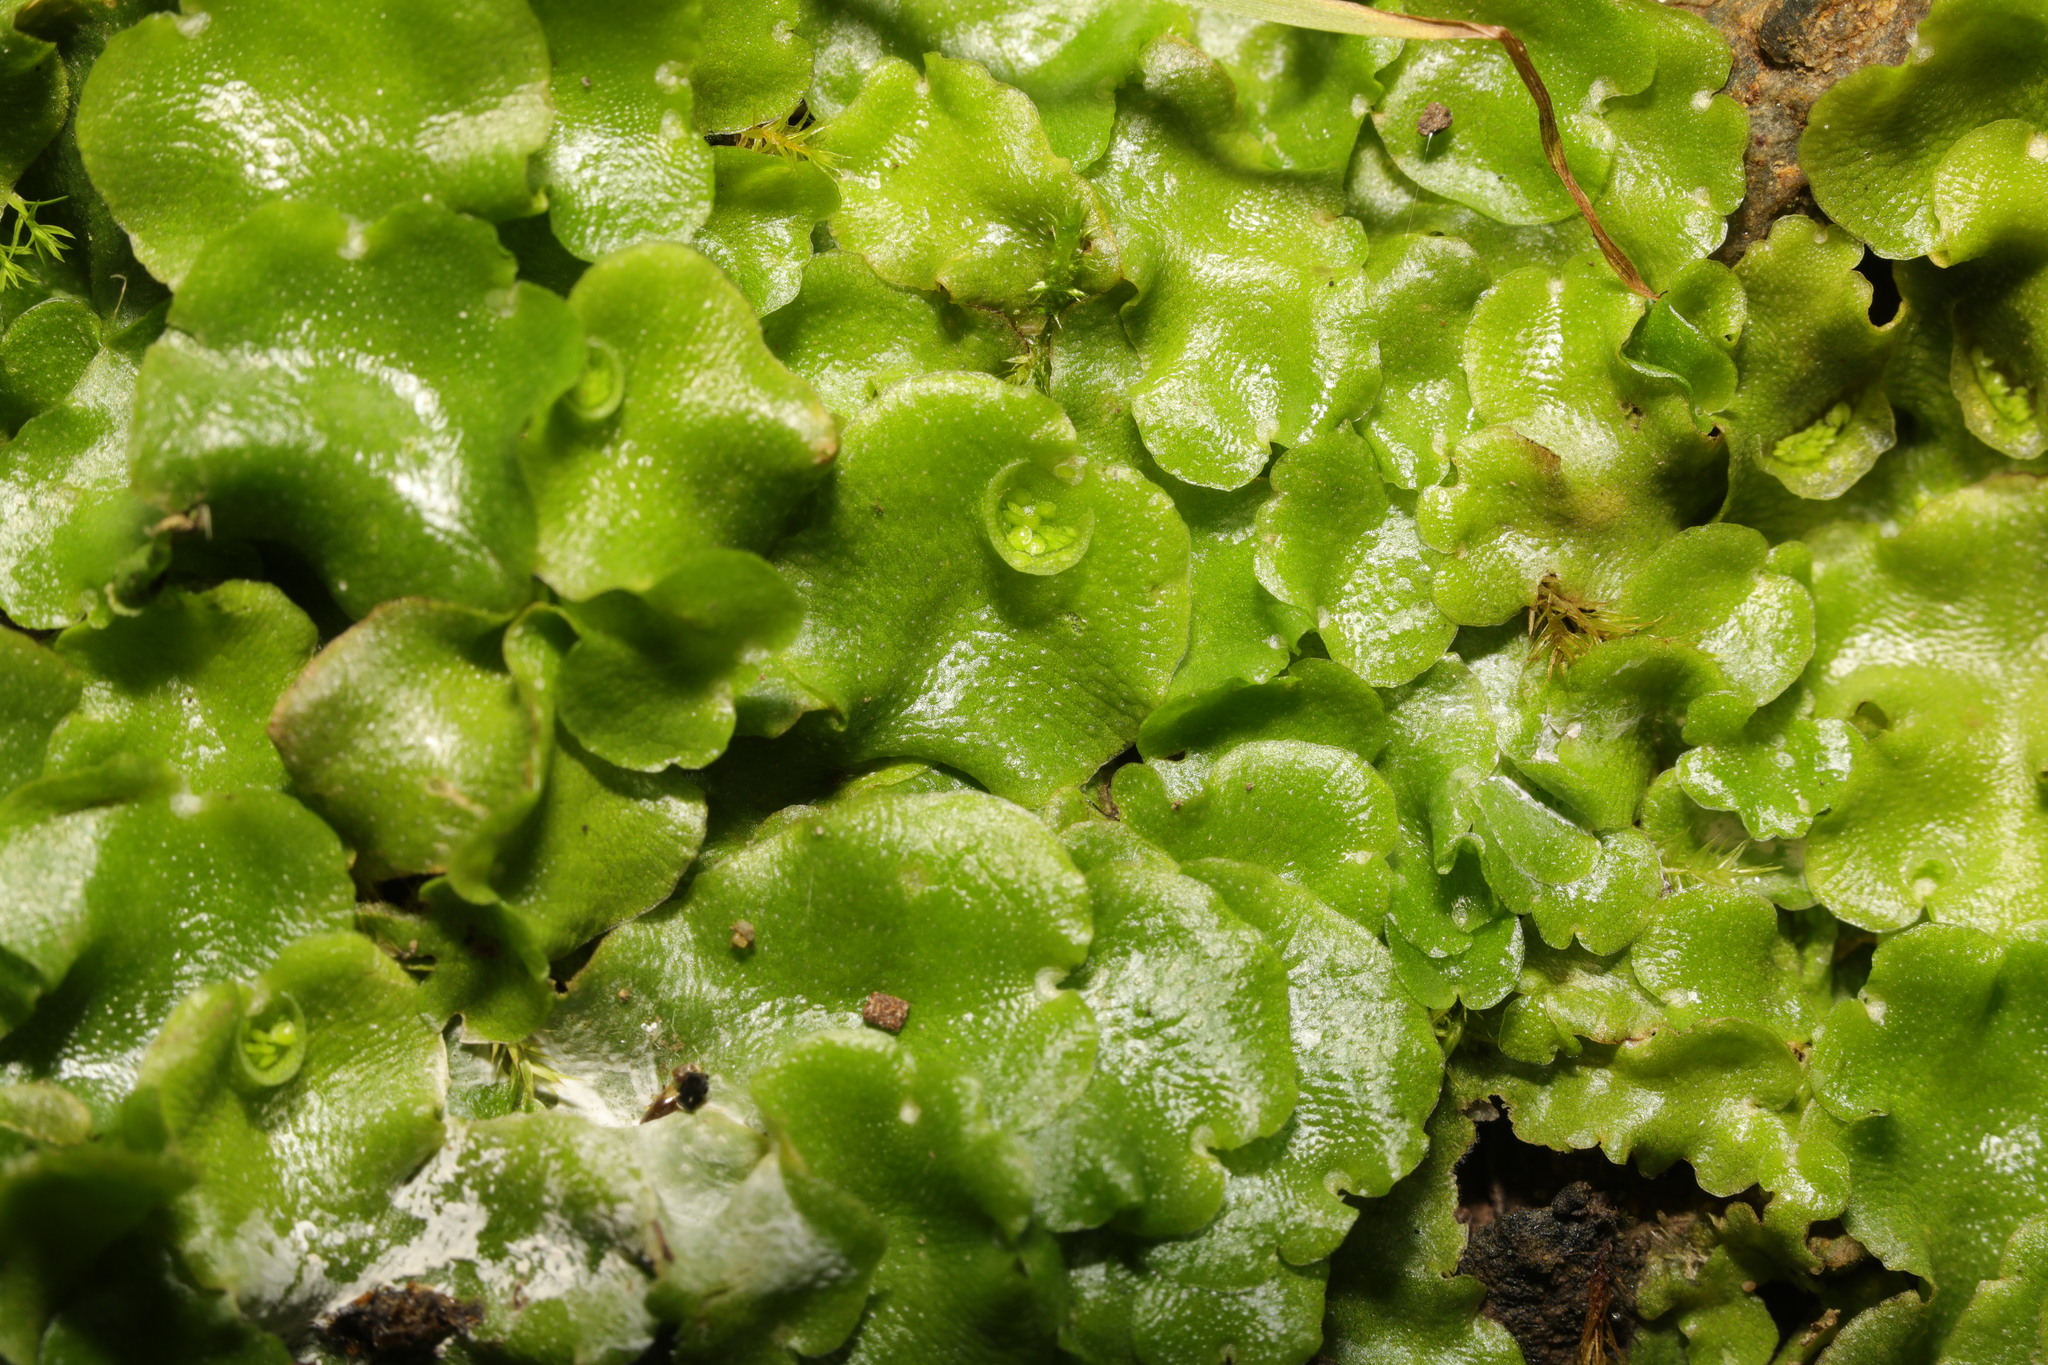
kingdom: Plantae
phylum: Marchantiophyta
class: Marchantiopsida
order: Lunulariales
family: Lunulariaceae
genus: Lunularia
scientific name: Lunularia cruciata
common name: Crescent-cup liverwort
